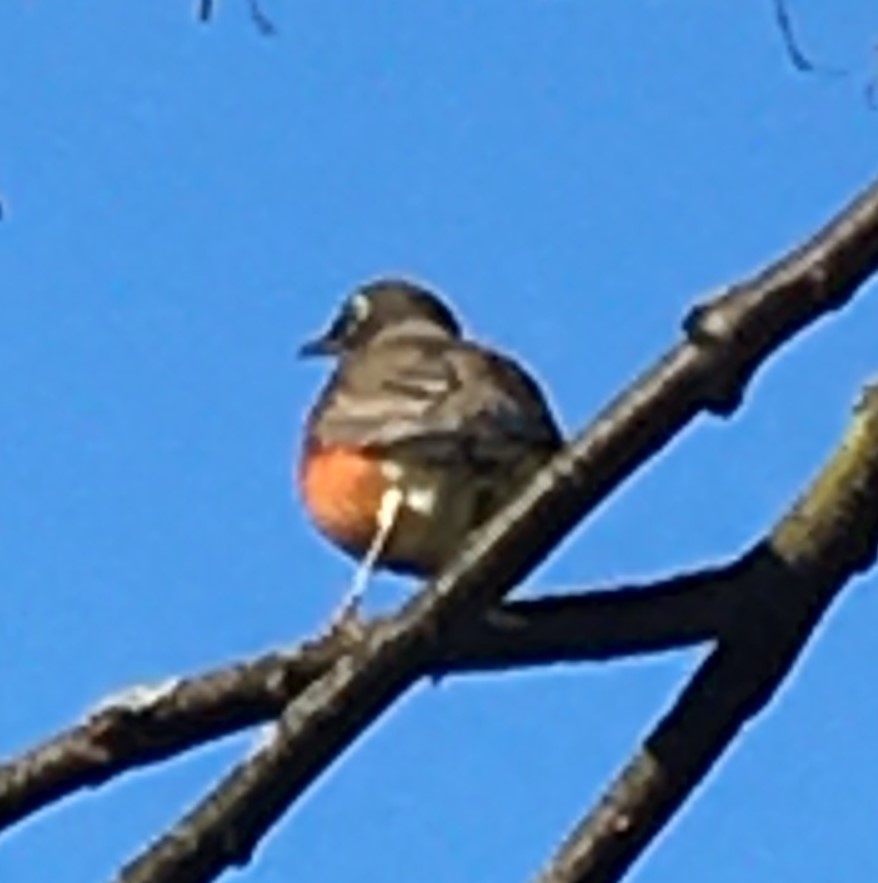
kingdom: Animalia
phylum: Chordata
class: Aves
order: Passeriformes
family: Turdidae
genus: Turdus
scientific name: Turdus migratorius
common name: American robin
